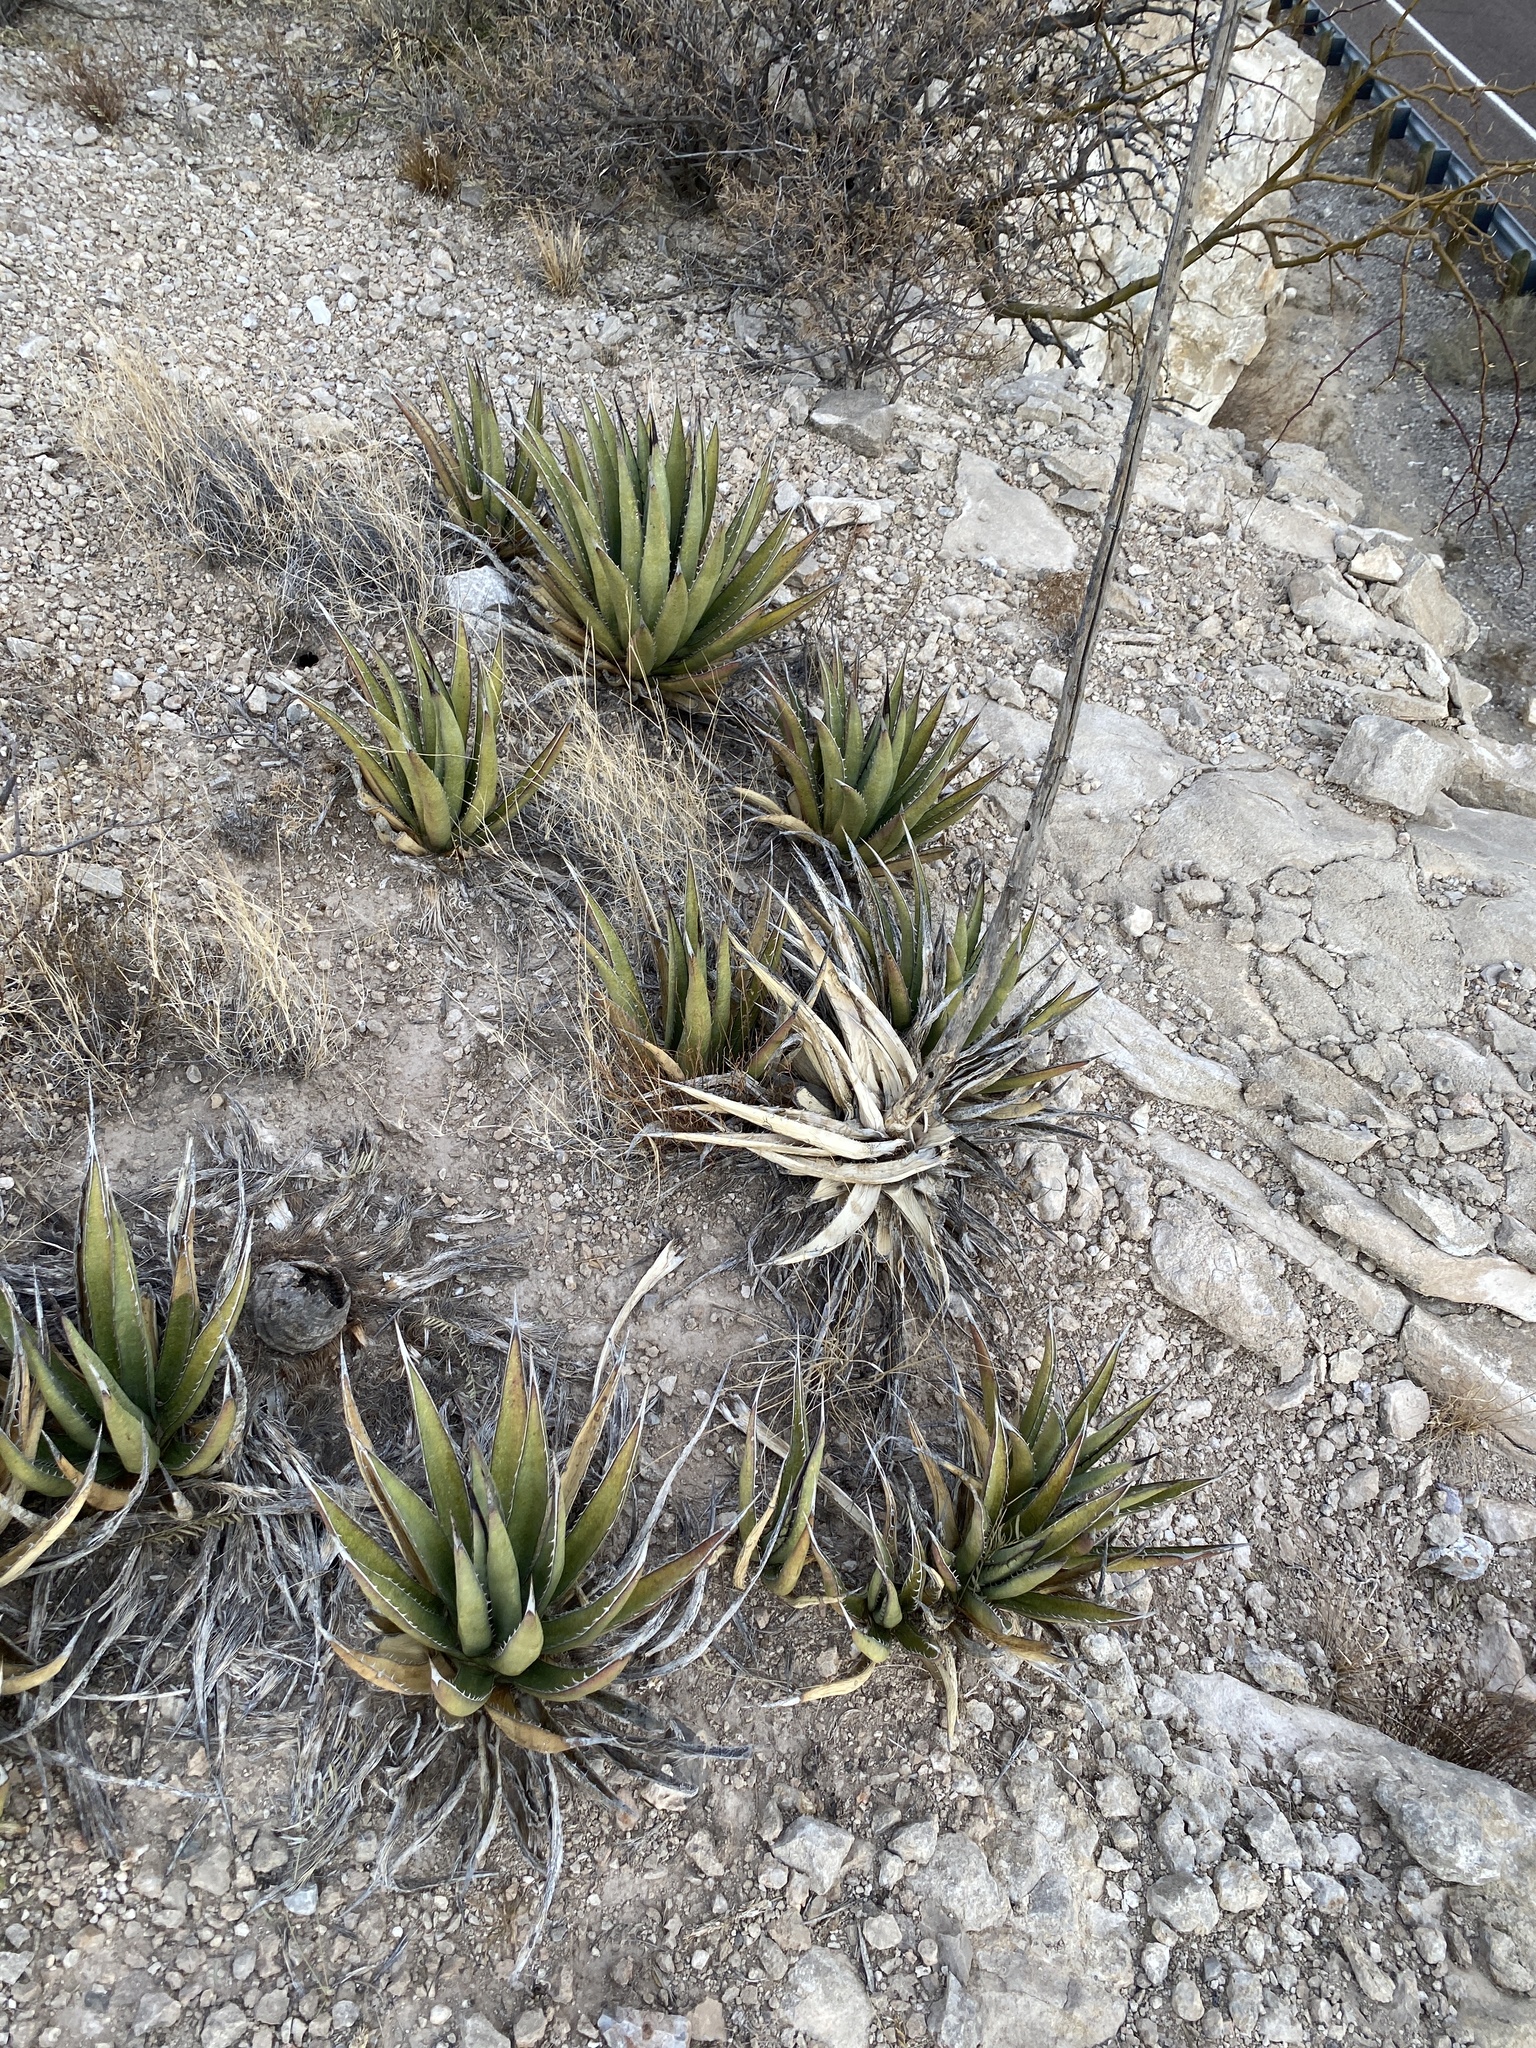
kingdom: Plantae
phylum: Tracheophyta
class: Liliopsida
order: Asparagales
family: Asparagaceae
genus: Agave
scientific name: Agave lechuguilla
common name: Lecheguilla agave
